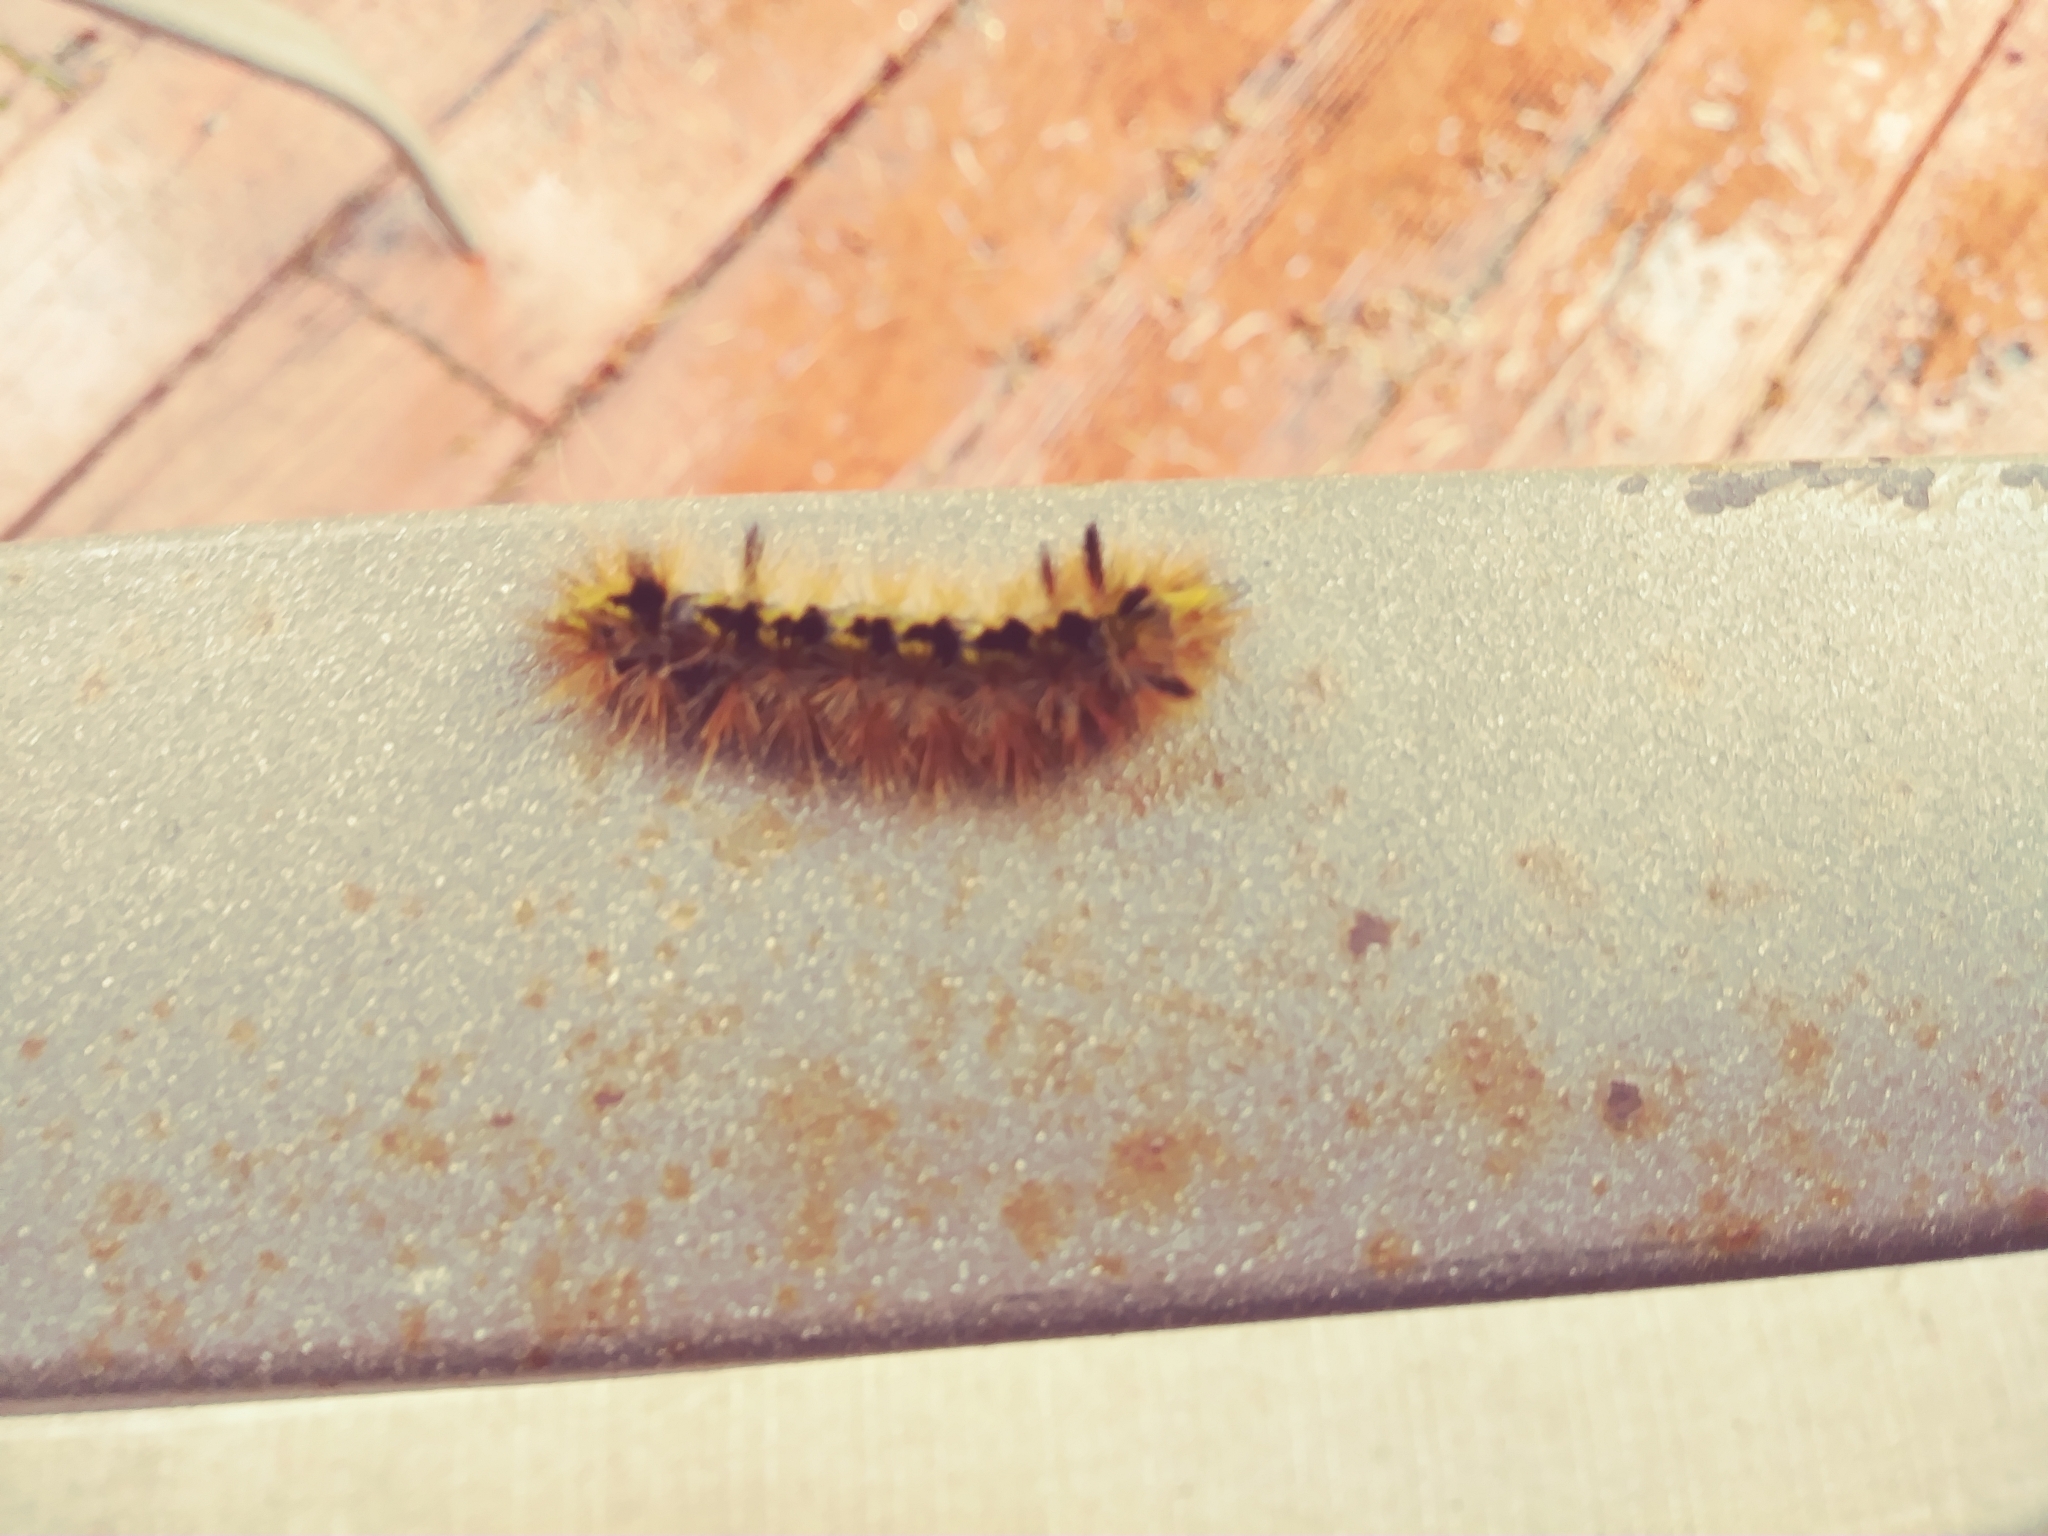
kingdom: Animalia
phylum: Arthropoda
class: Insecta
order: Lepidoptera
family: Erebidae
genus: Lophocampa
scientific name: Lophocampa argentata
